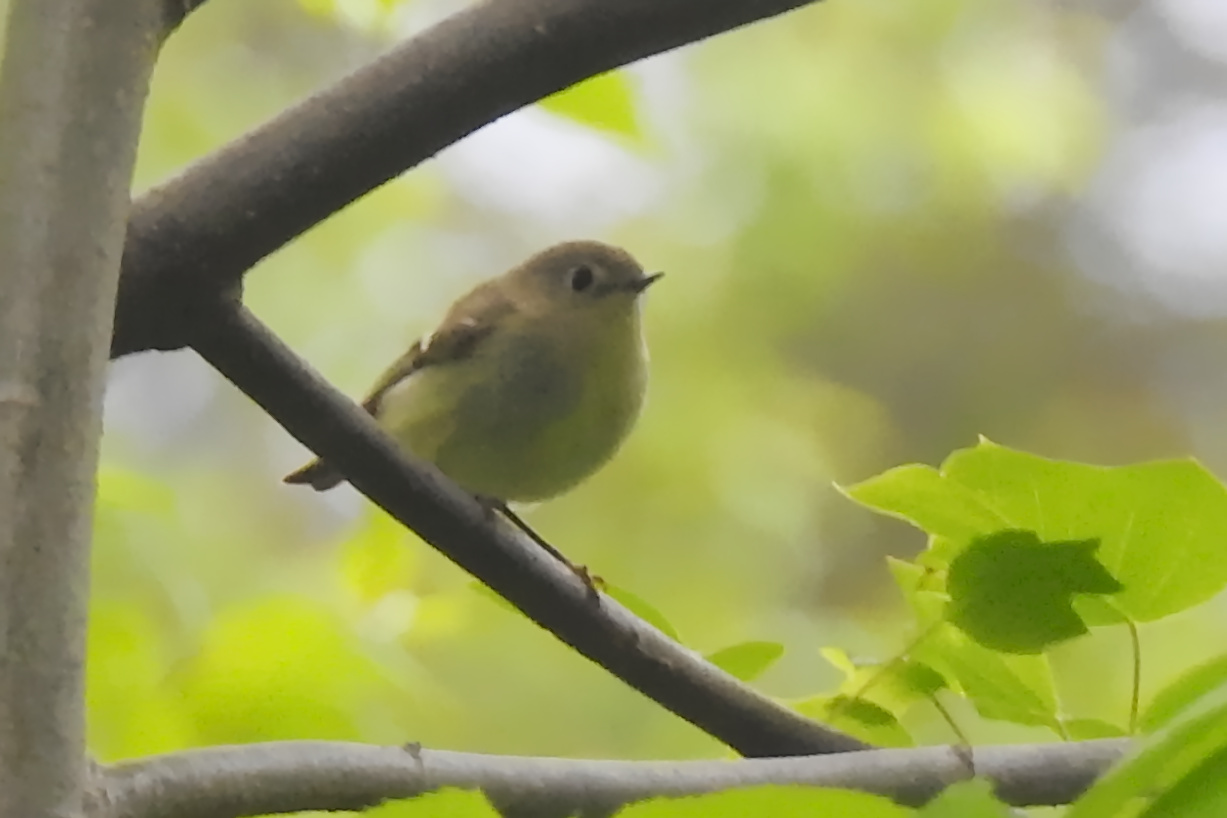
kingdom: Animalia
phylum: Chordata
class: Aves
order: Passeriformes
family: Regulidae
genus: Regulus
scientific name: Regulus calendula
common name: Ruby-crowned kinglet
